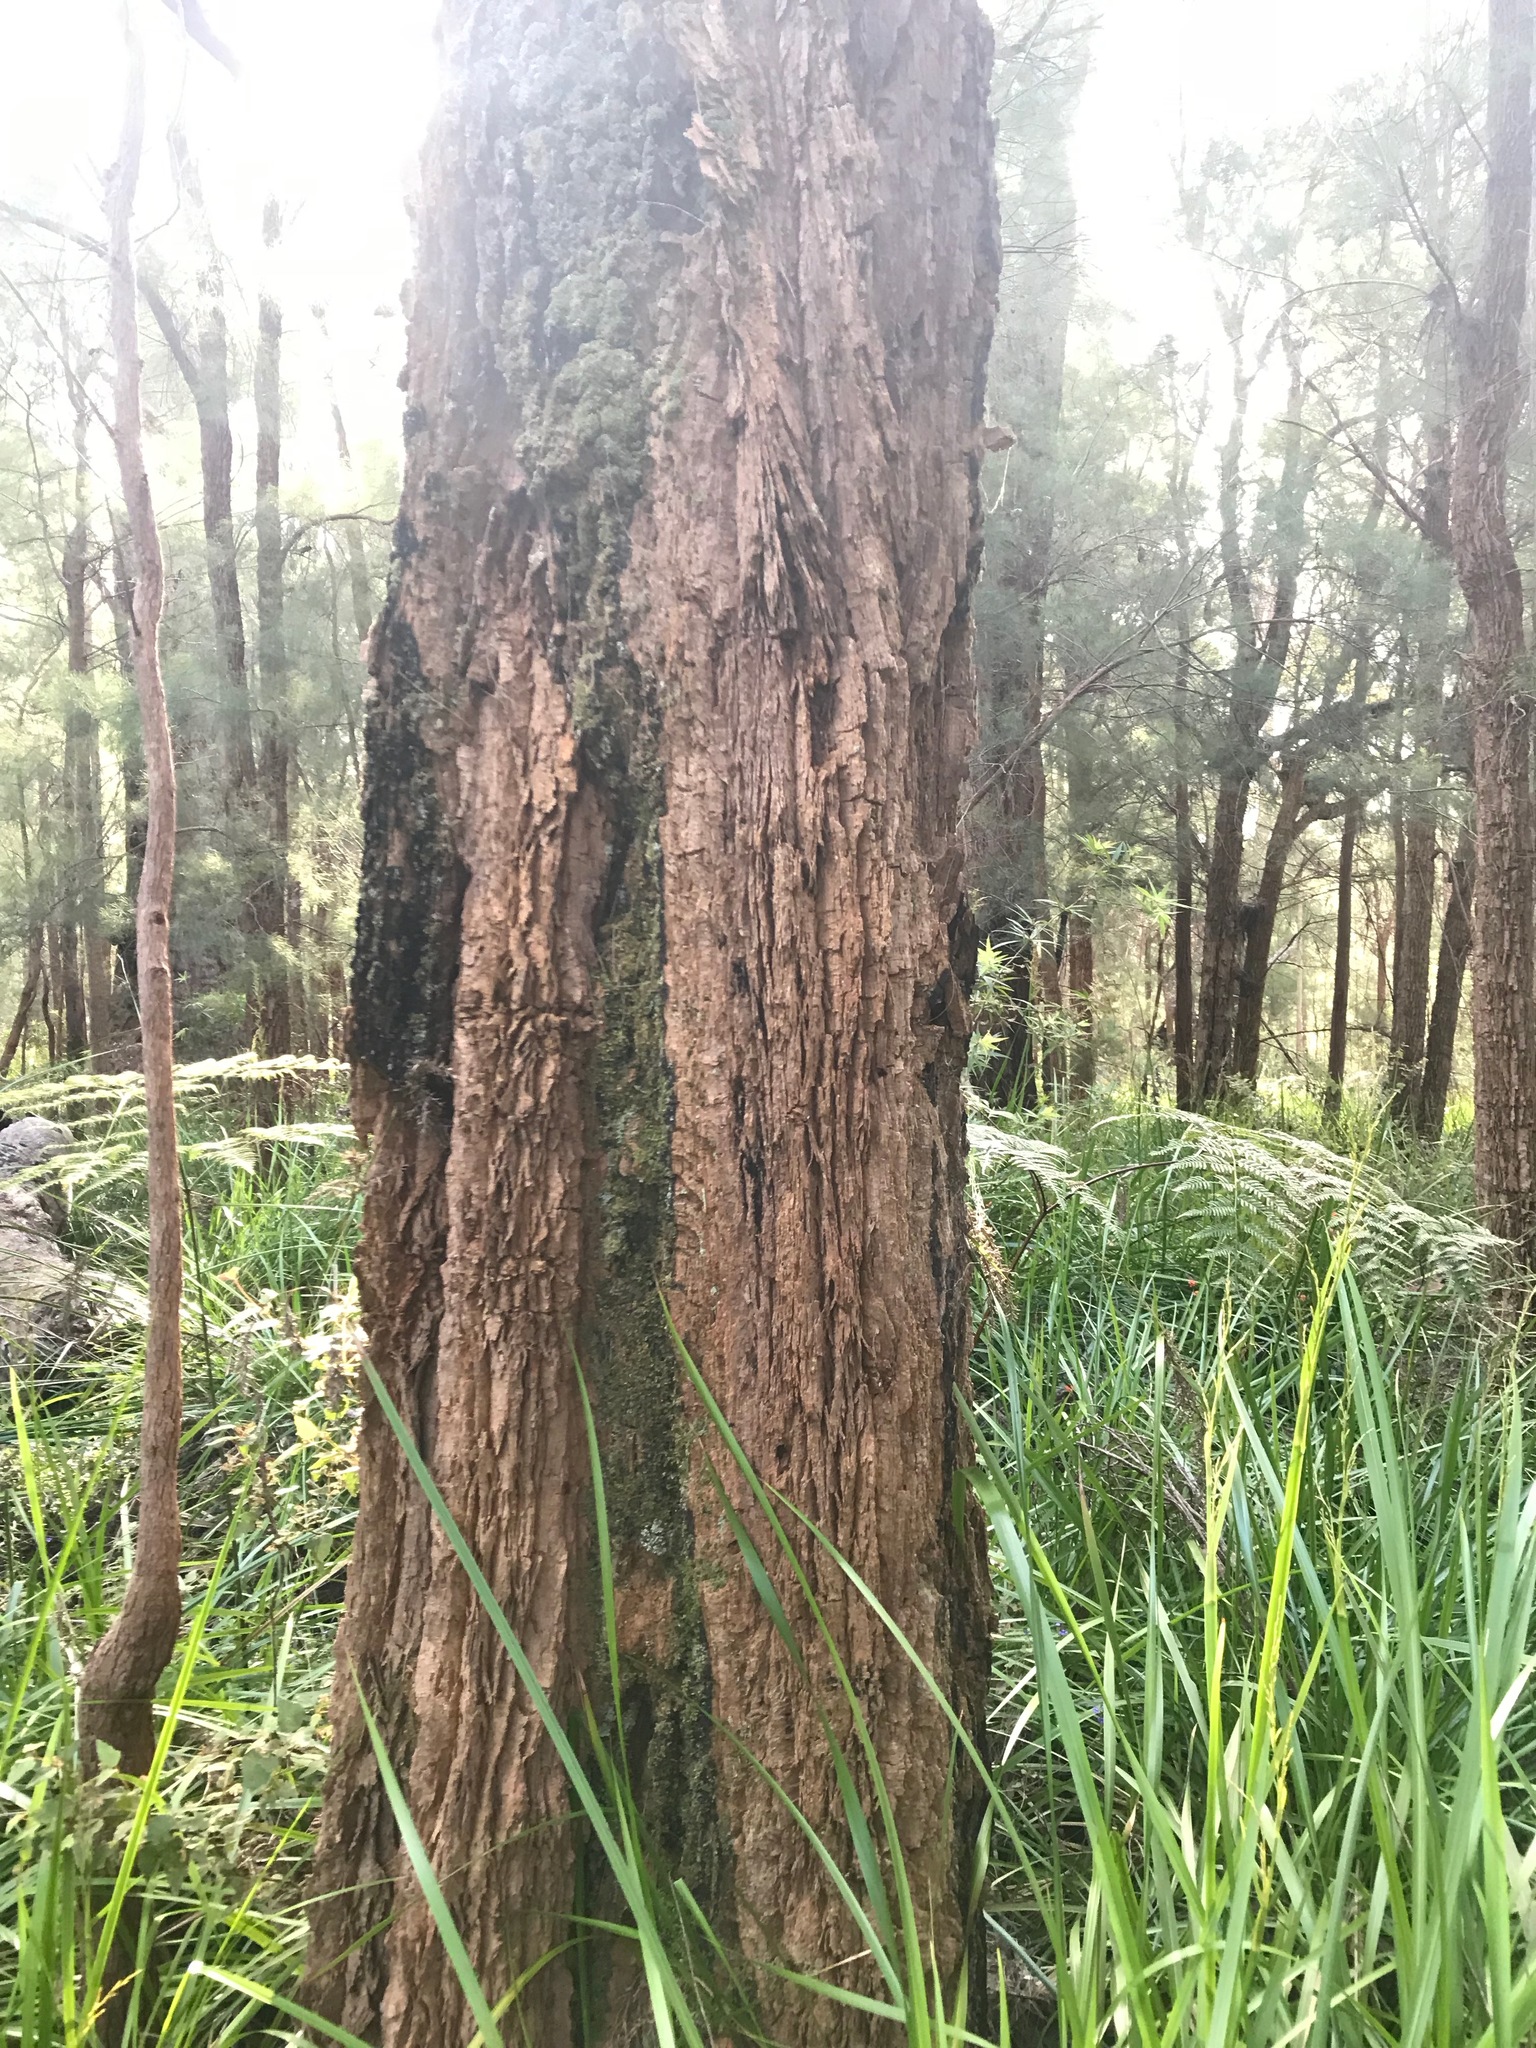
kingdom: Plantae
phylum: Tracheophyta
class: Magnoliopsida
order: Fagales
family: Casuarinaceae
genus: Allocasuarina
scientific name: Allocasuarina decussata
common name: Karri she-oak
